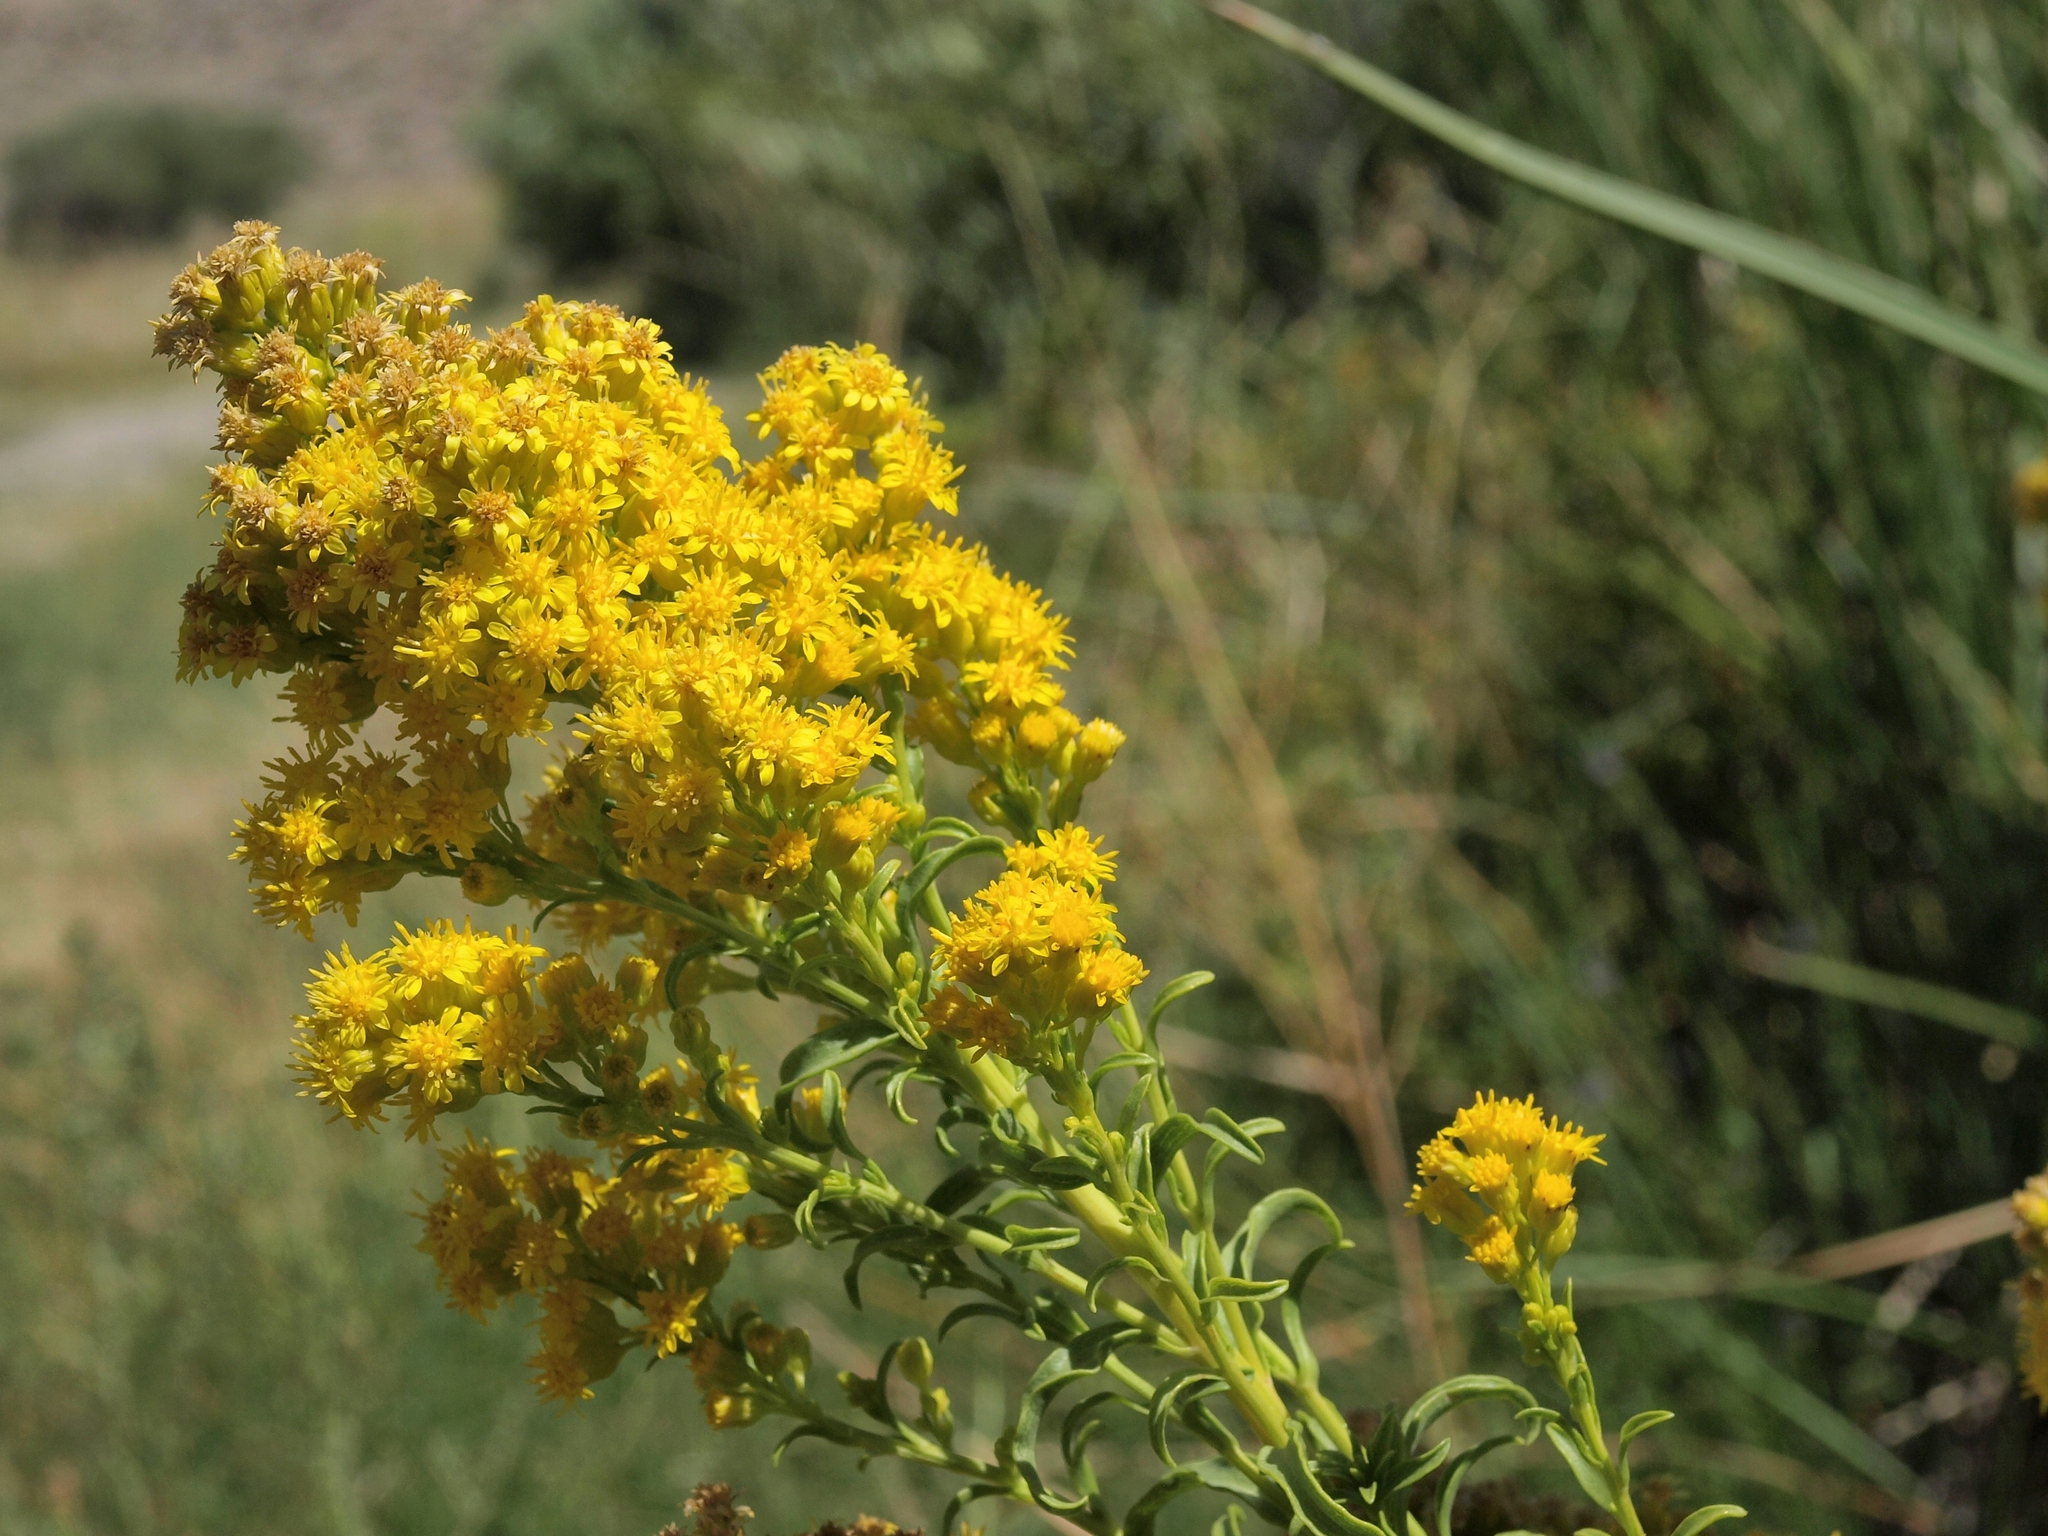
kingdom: Plantae
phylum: Tracheophyta
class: Magnoliopsida
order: Asterales
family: Asteraceae
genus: Solidago
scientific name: Solidago spectabilis
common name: Basin goldenrod
